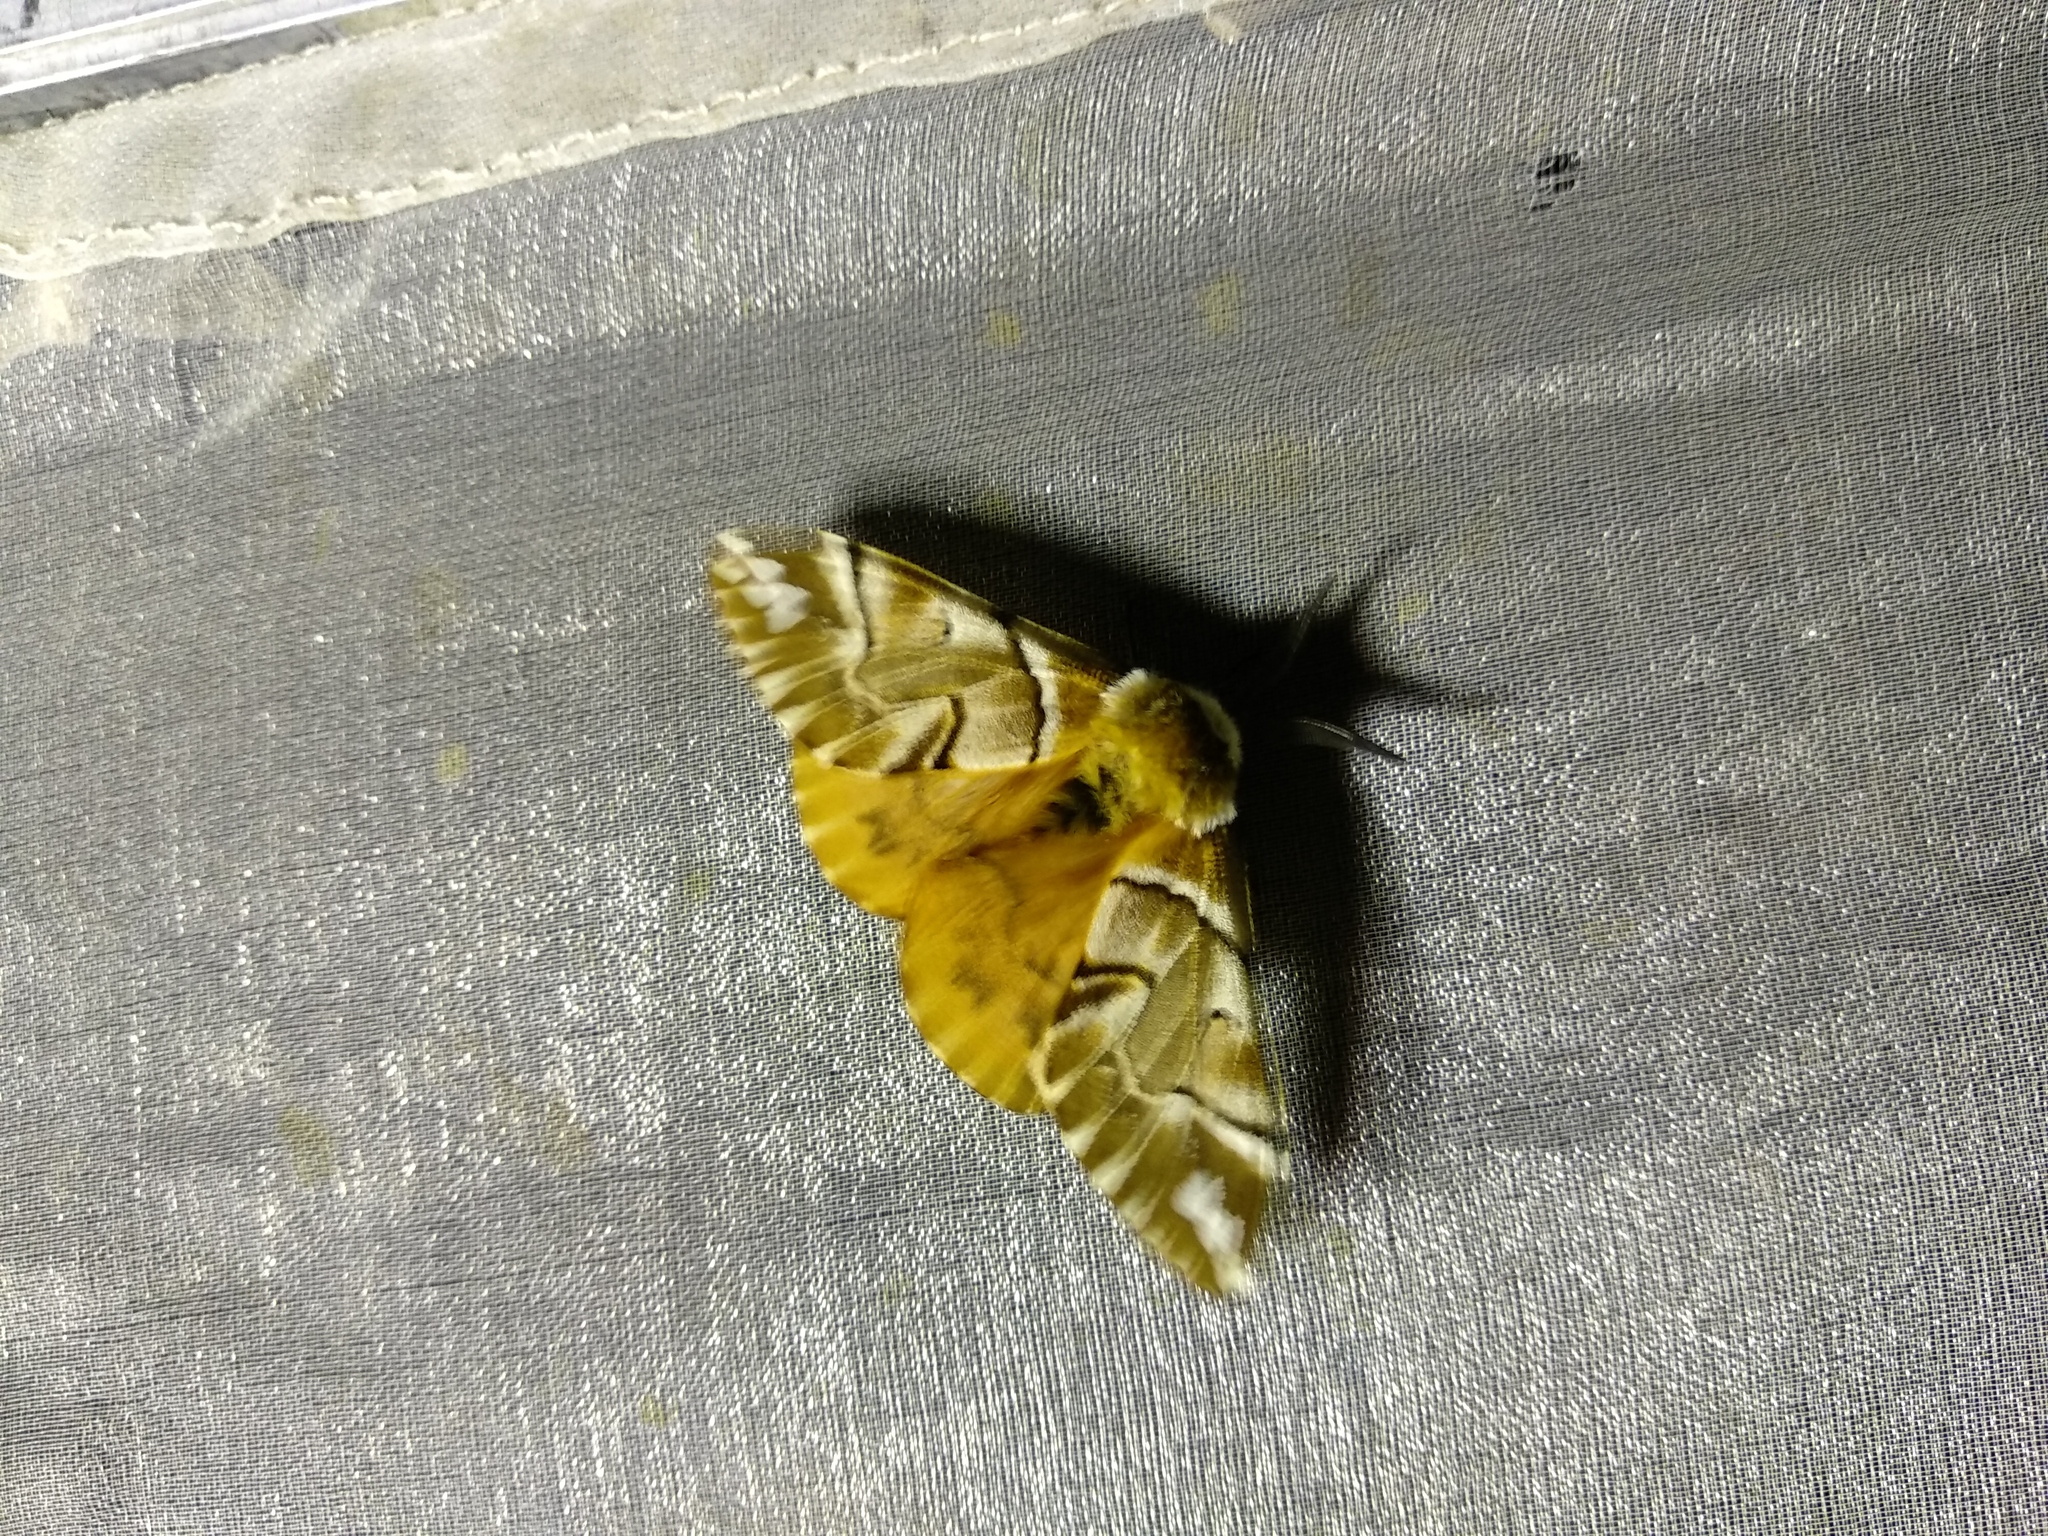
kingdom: Animalia
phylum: Arthropoda
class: Insecta
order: Lepidoptera
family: Endromidae
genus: Endromis
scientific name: Endromis versicolora
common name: Kentish glory
